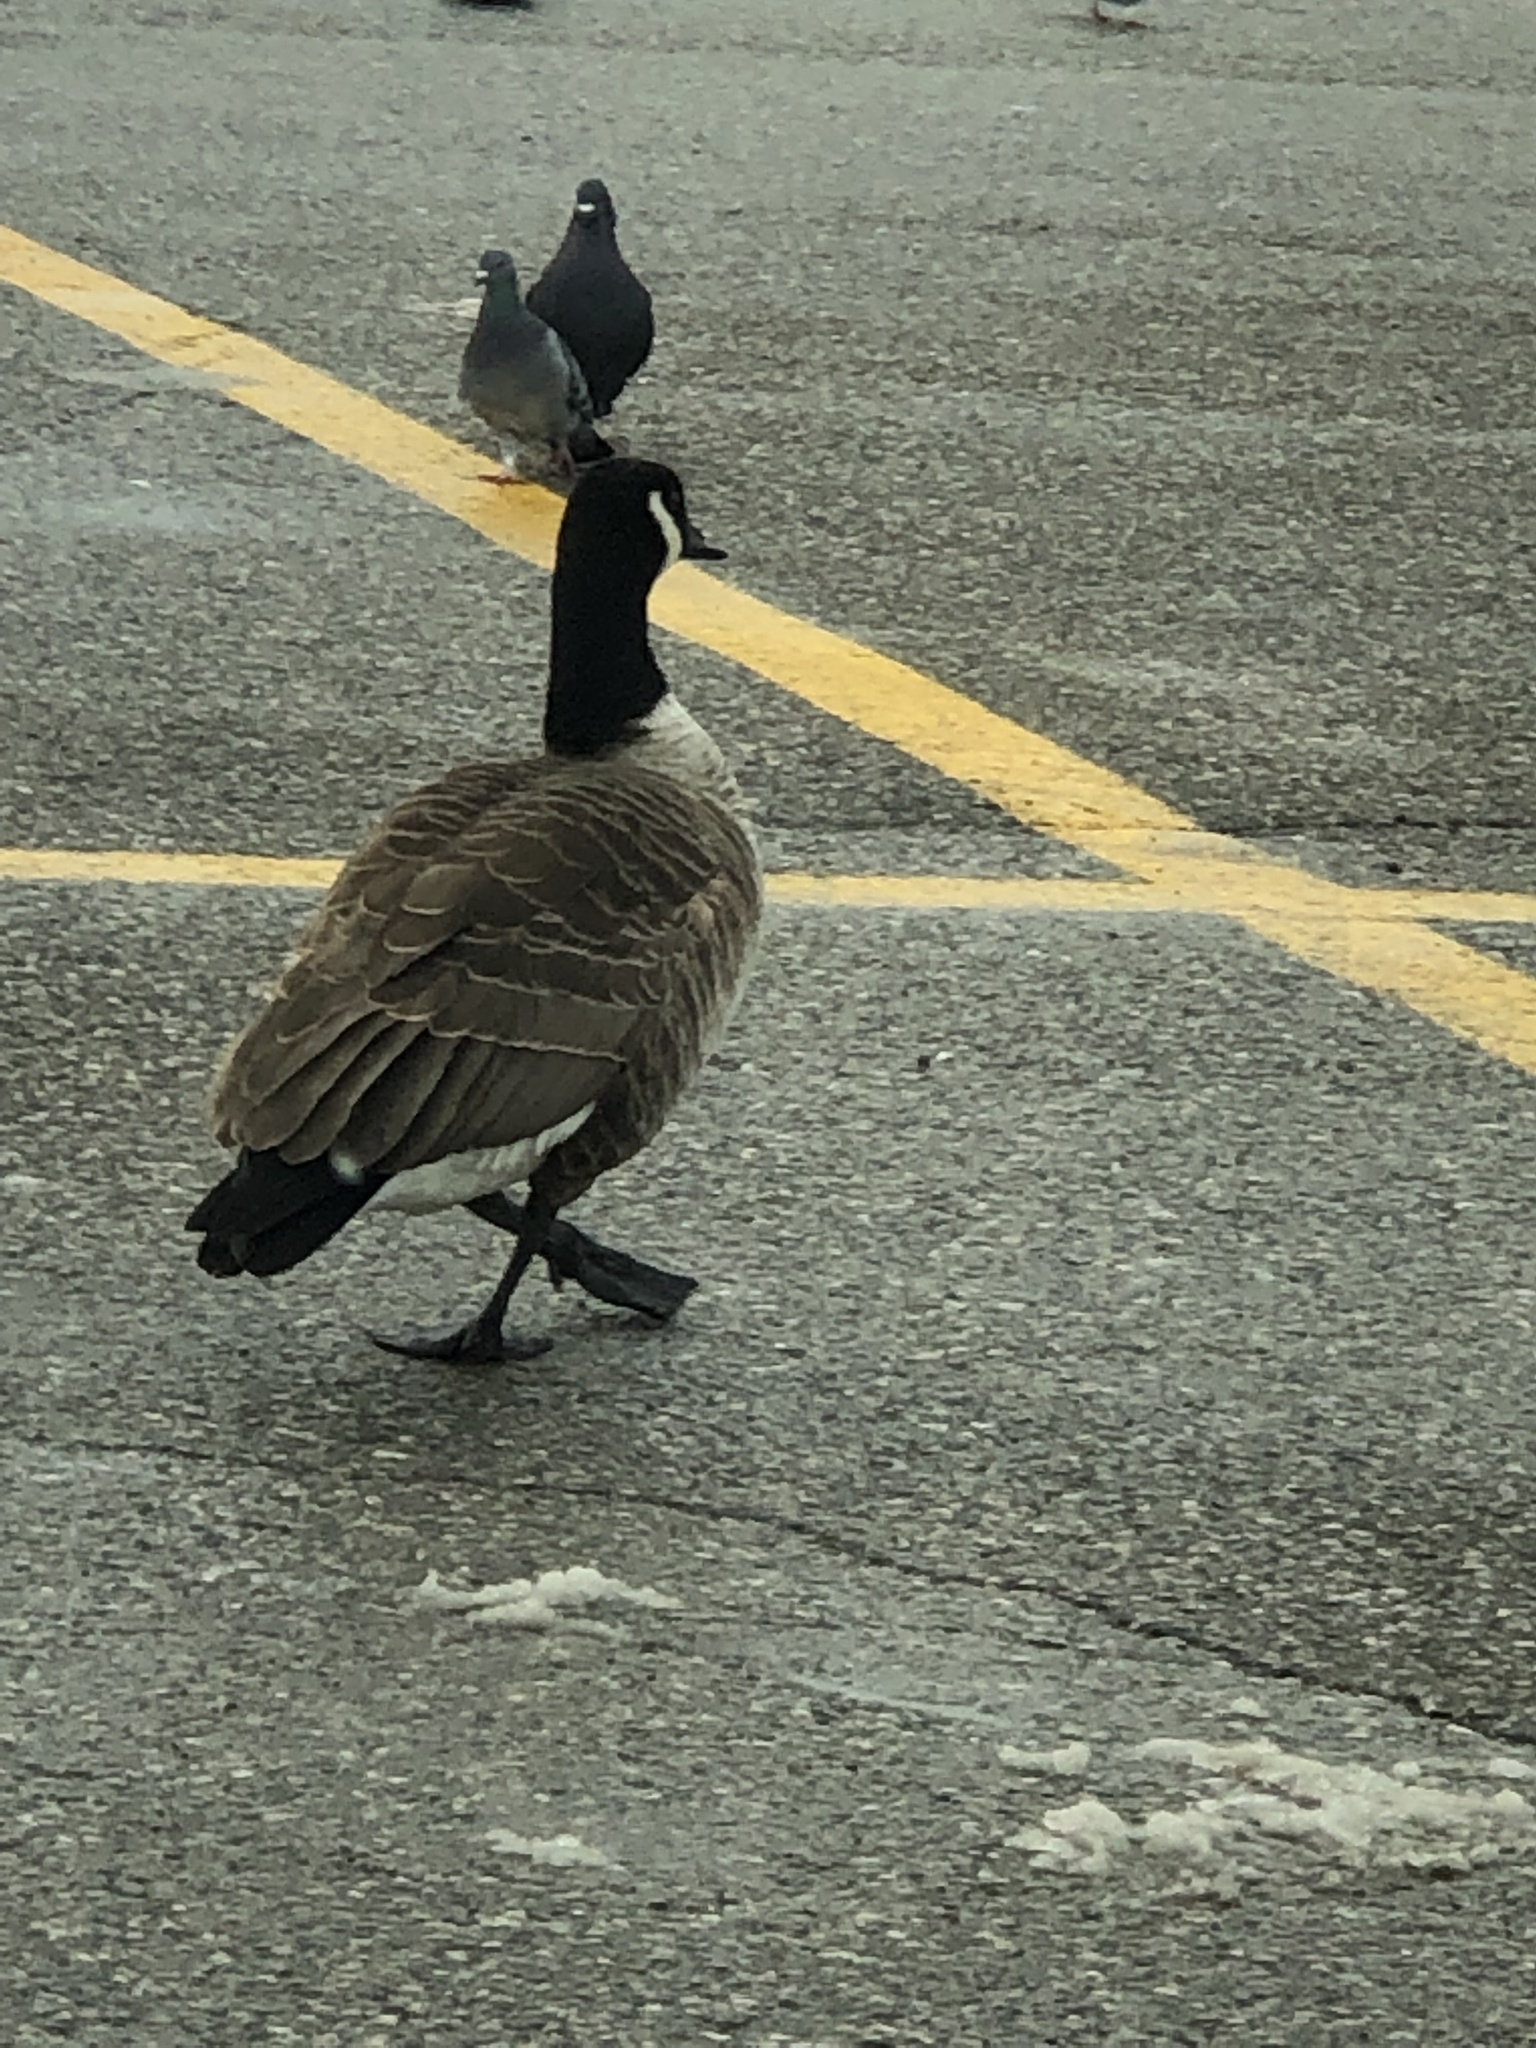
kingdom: Animalia
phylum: Chordata
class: Aves
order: Anseriformes
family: Anatidae
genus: Branta
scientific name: Branta canadensis
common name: Canada goose
